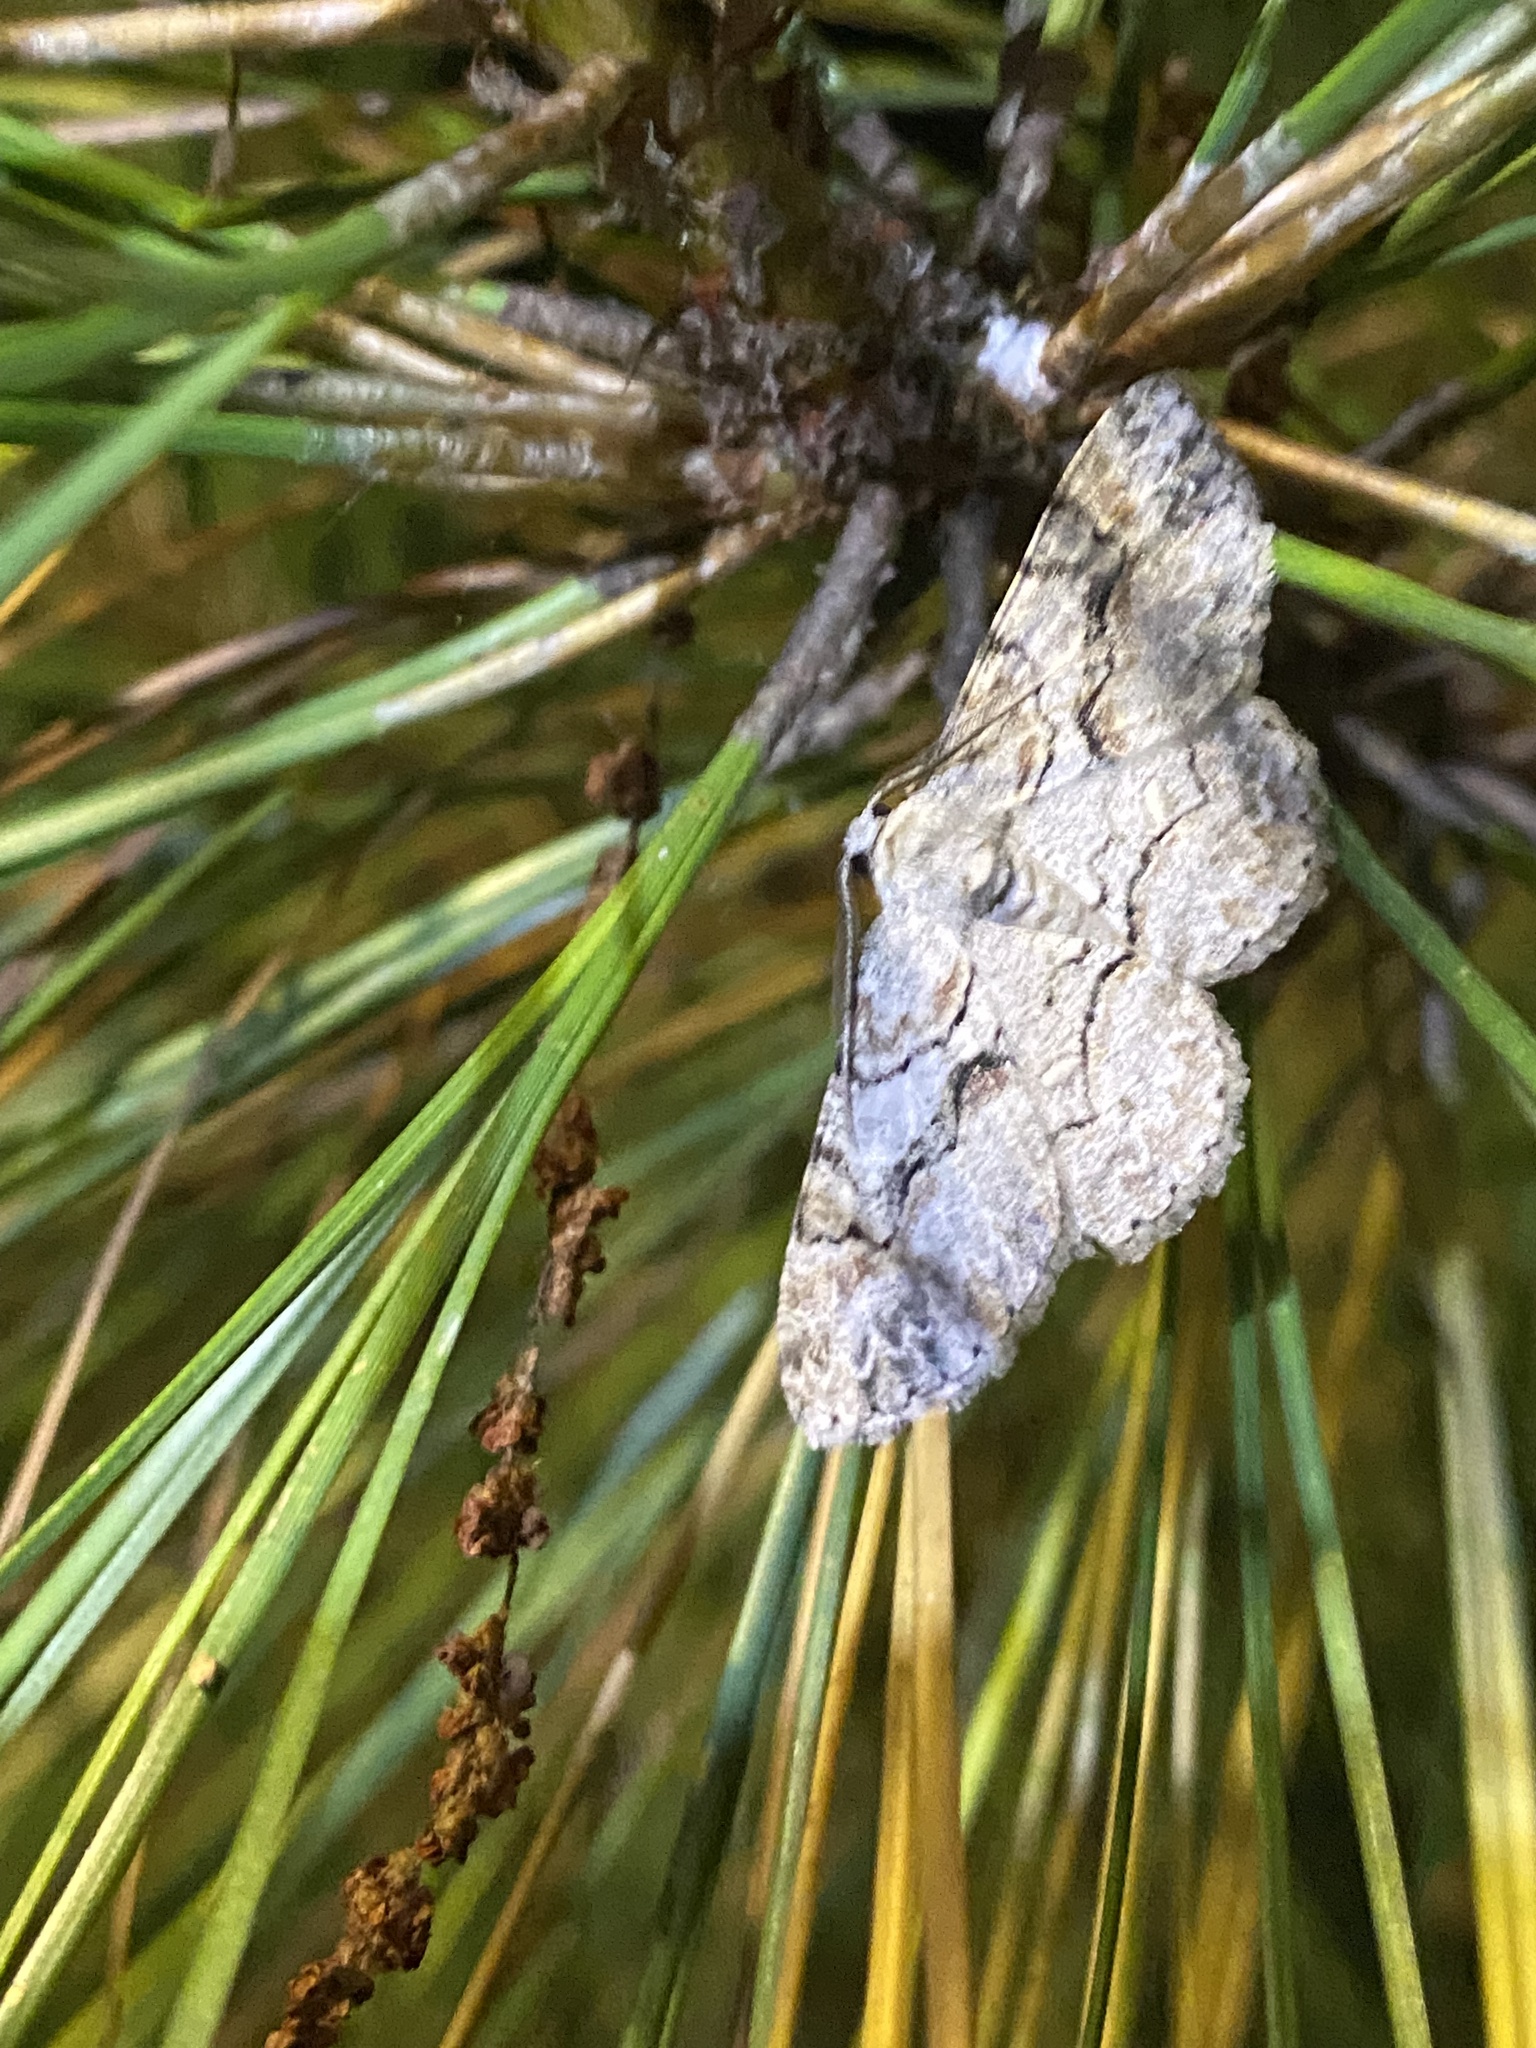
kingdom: Animalia
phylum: Arthropoda
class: Insecta
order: Lepidoptera
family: Geometridae
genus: Iridopsis
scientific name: Iridopsis defectaria
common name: Brown-shaded gray
